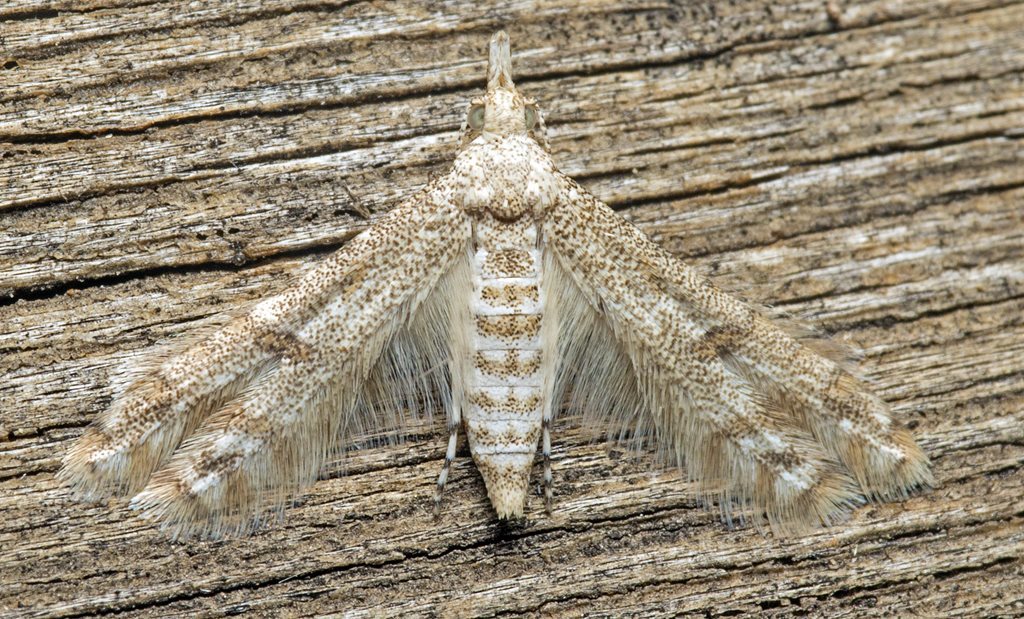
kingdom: Animalia
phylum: Arthropoda
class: Insecta
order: Lepidoptera
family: Alucitidae
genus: Cenoloba
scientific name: Cenoloba obliteralis
